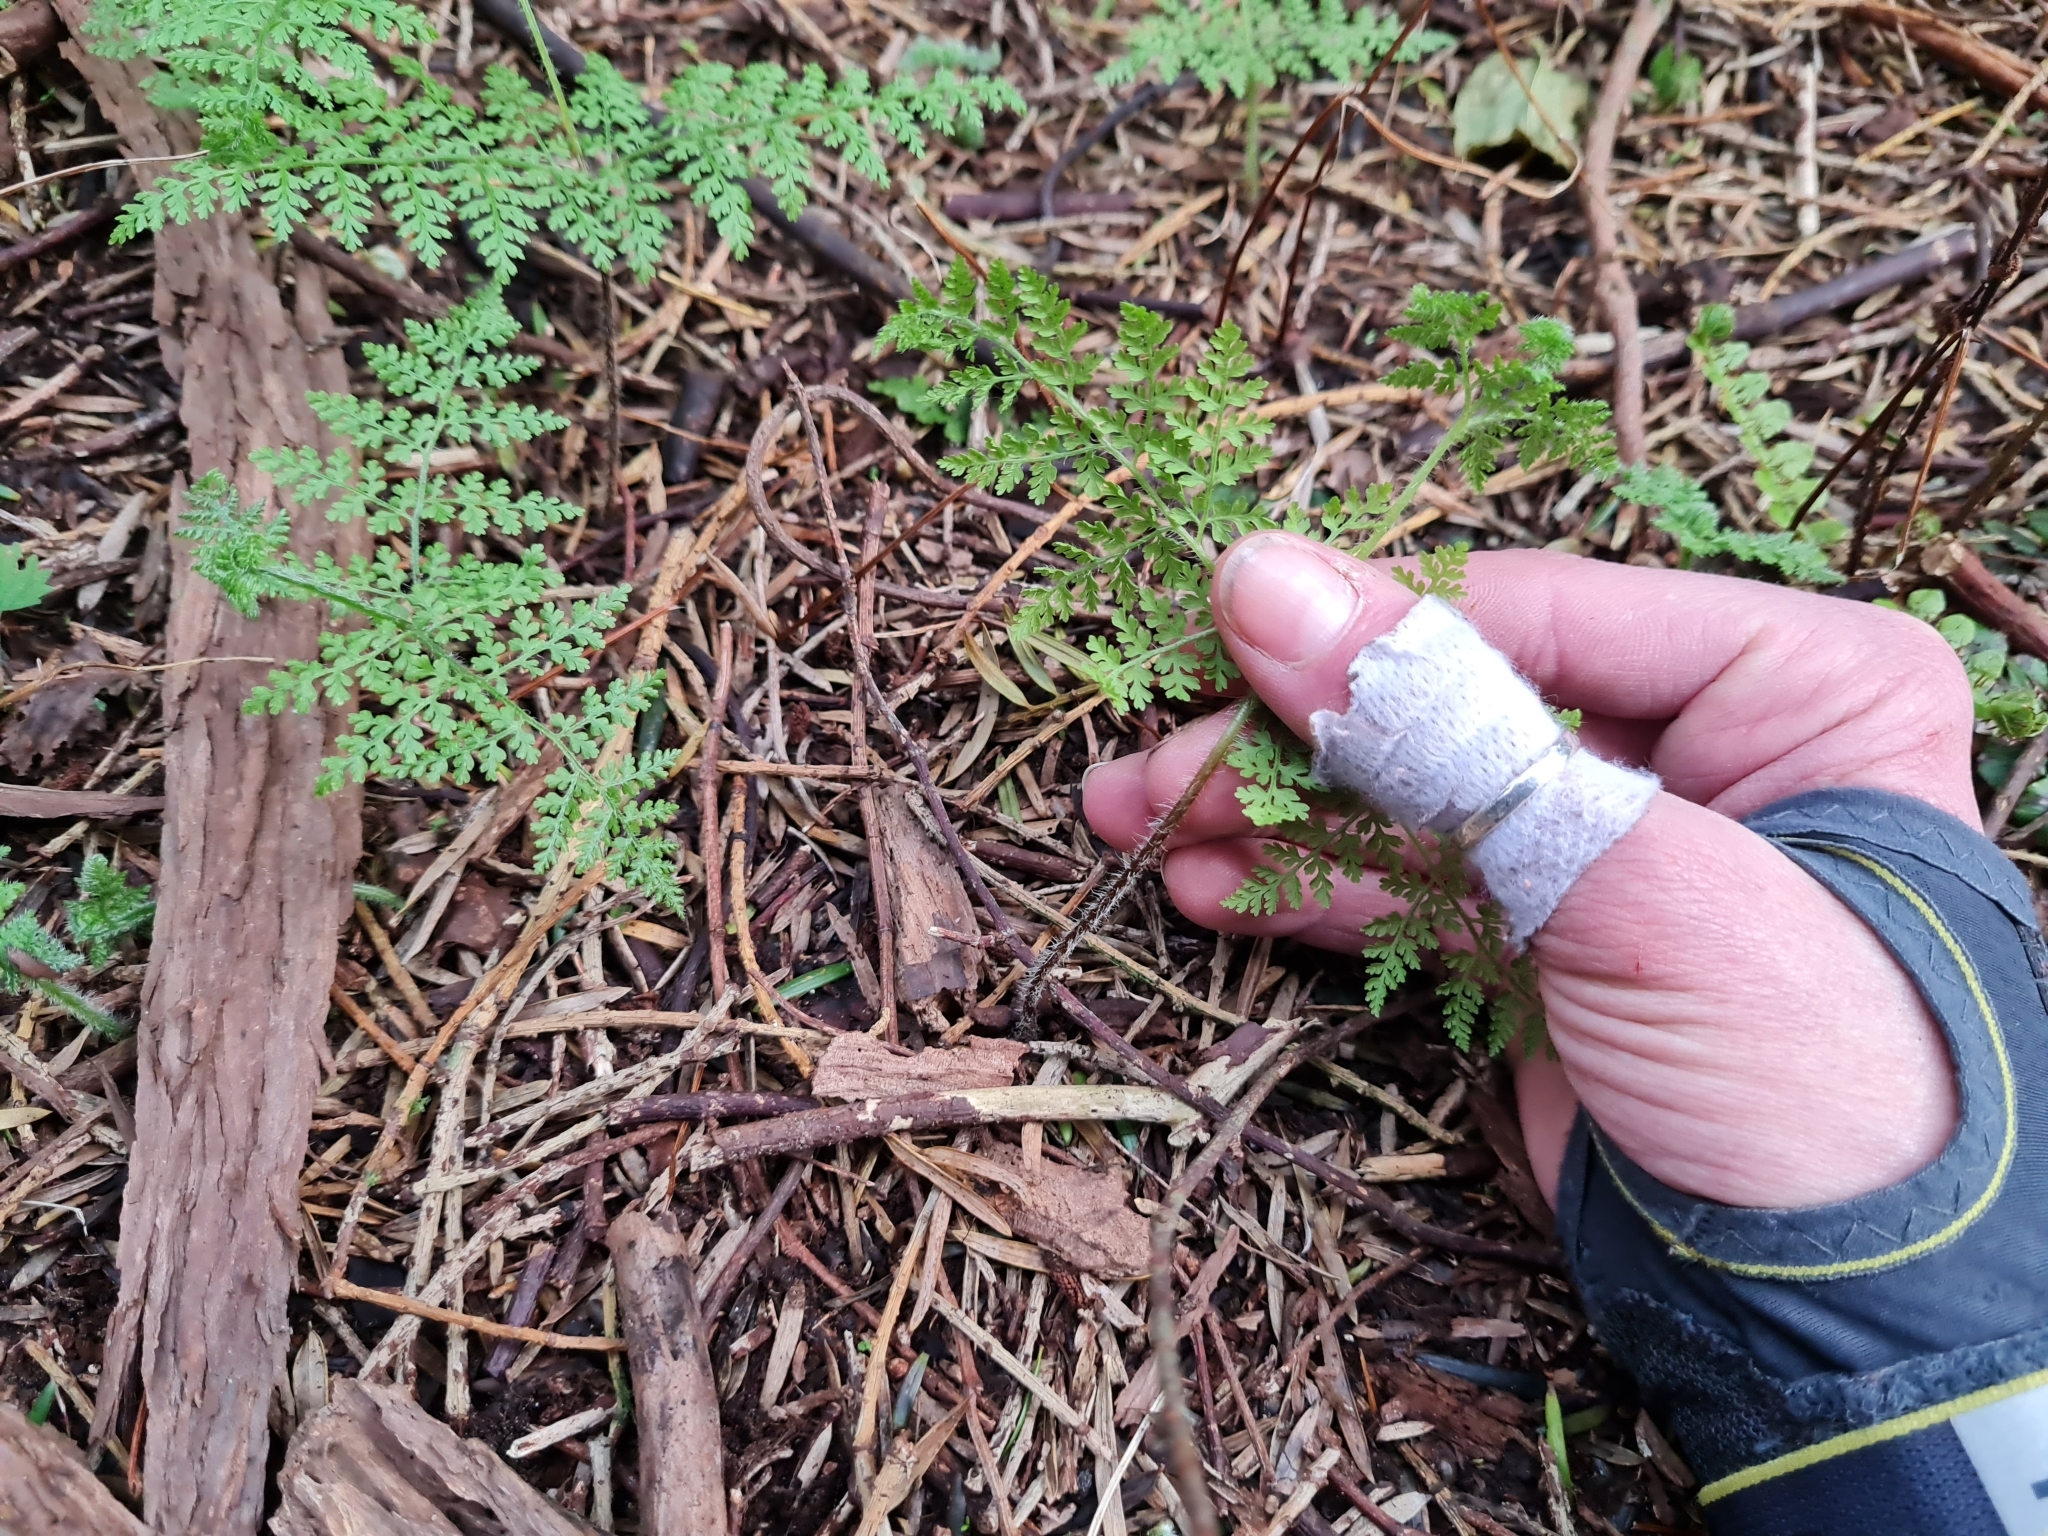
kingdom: Plantae
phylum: Tracheophyta
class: Polypodiopsida
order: Polypodiales
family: Dennstaedtiaceae
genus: Hypolepis
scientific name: Hypolepis millefolium
